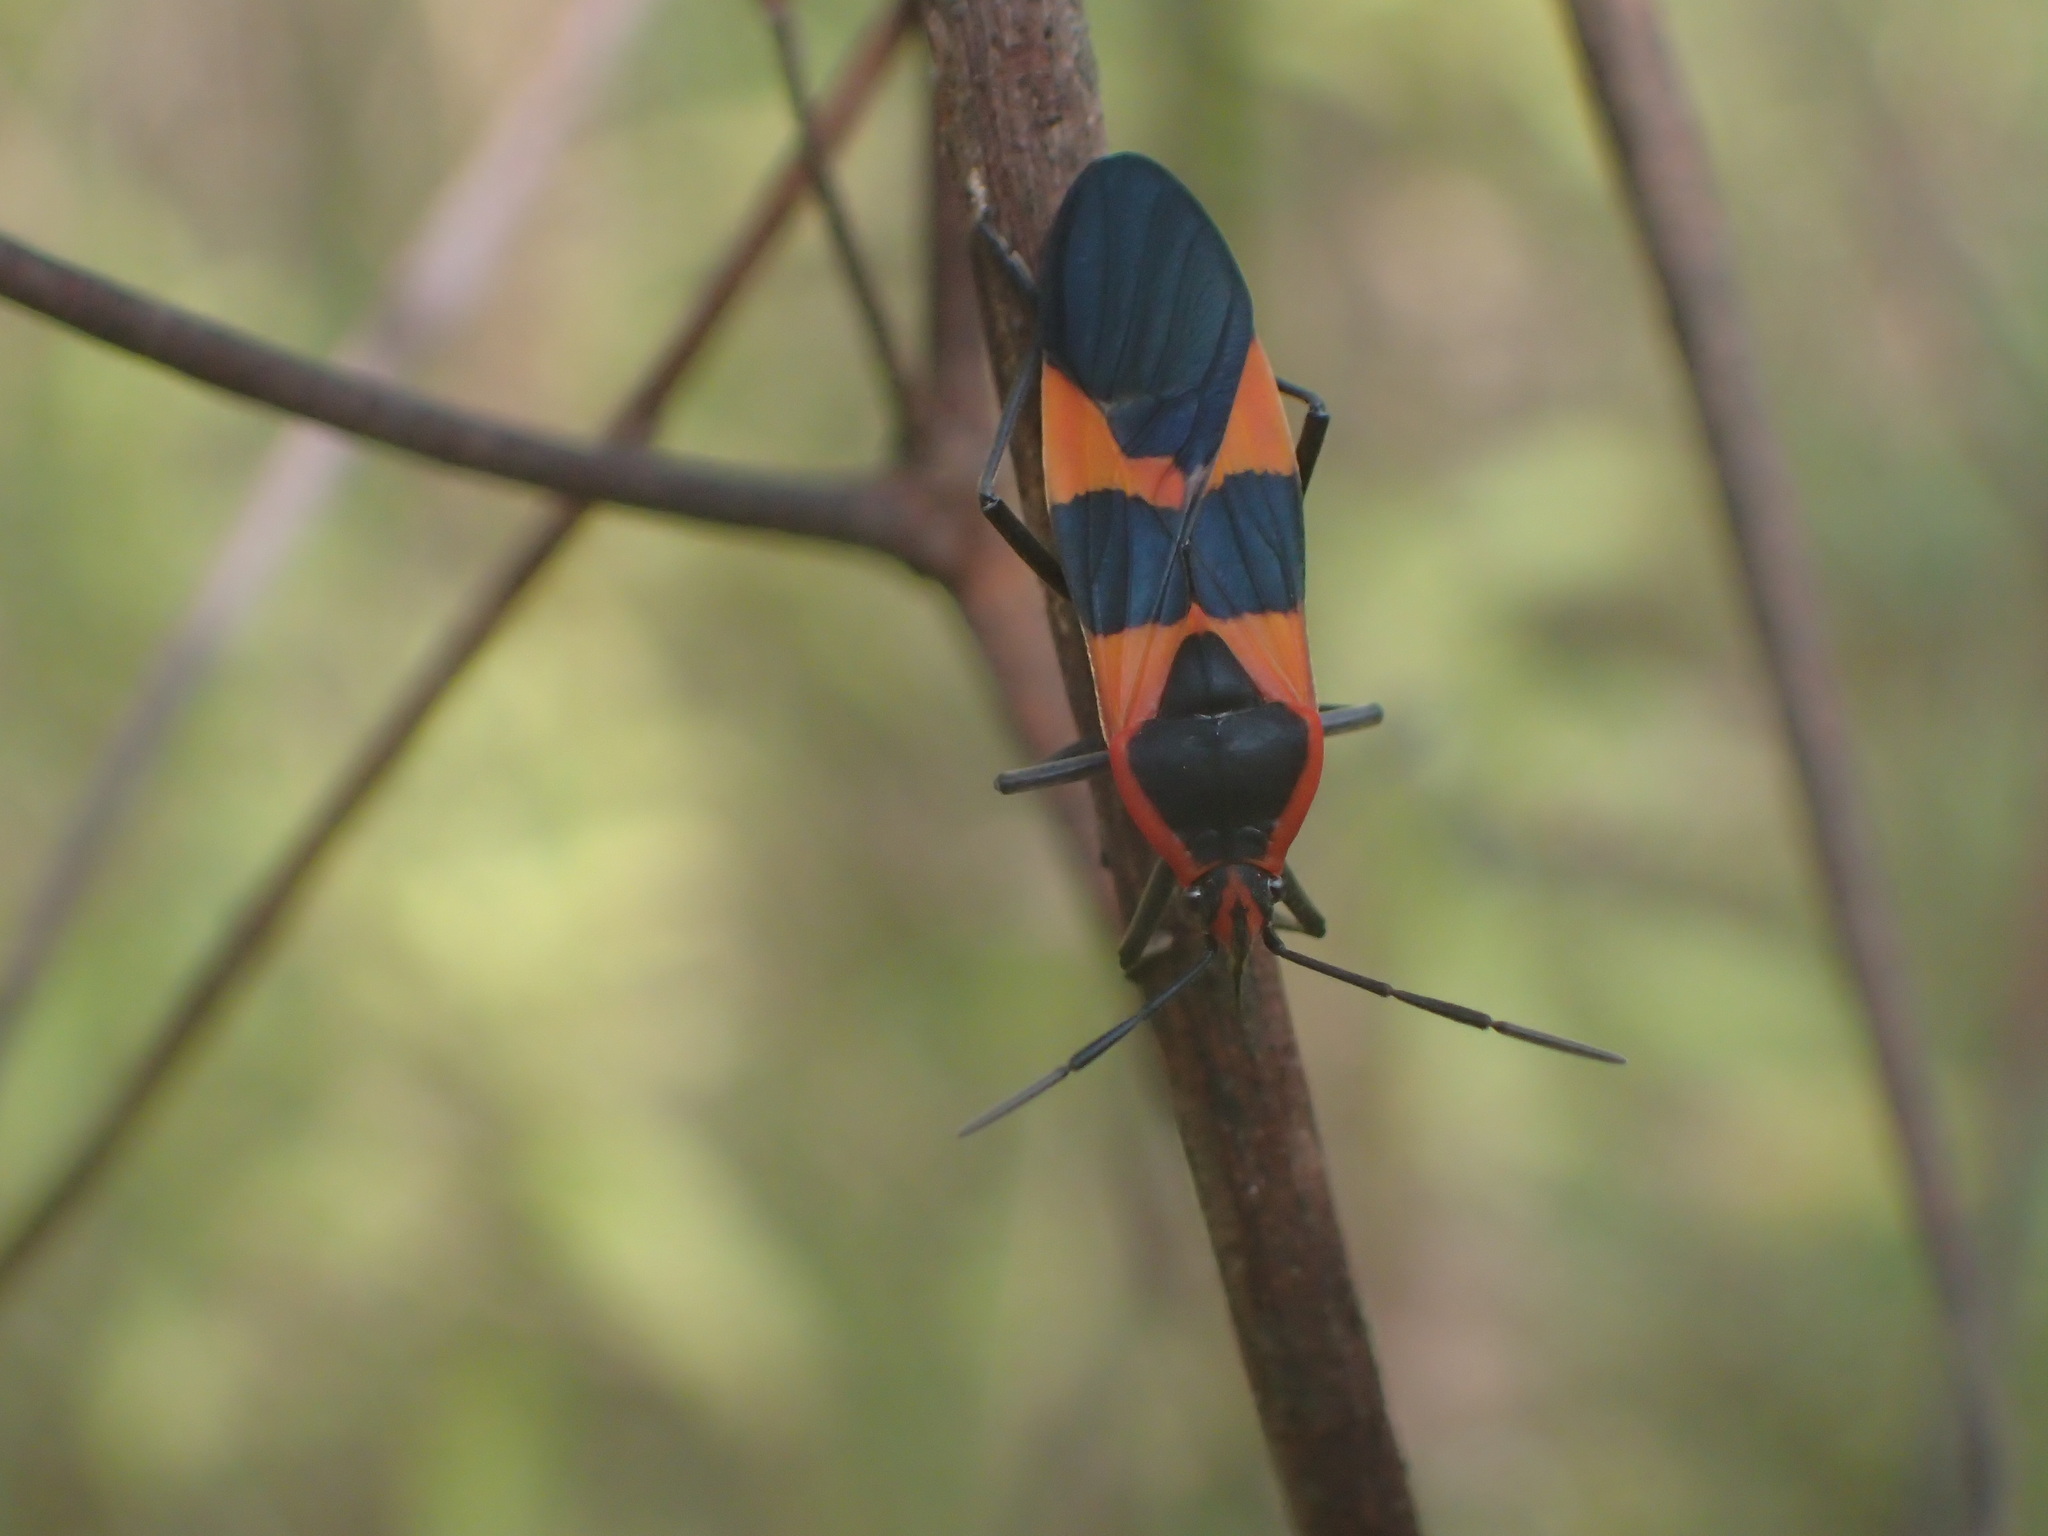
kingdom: Animalia
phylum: Arthropoda
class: Insecta
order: Hemiptera
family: Lygaeidae
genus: Oncopeltus
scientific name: Oncopeltus fasciatus
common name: Large milkweed bug
